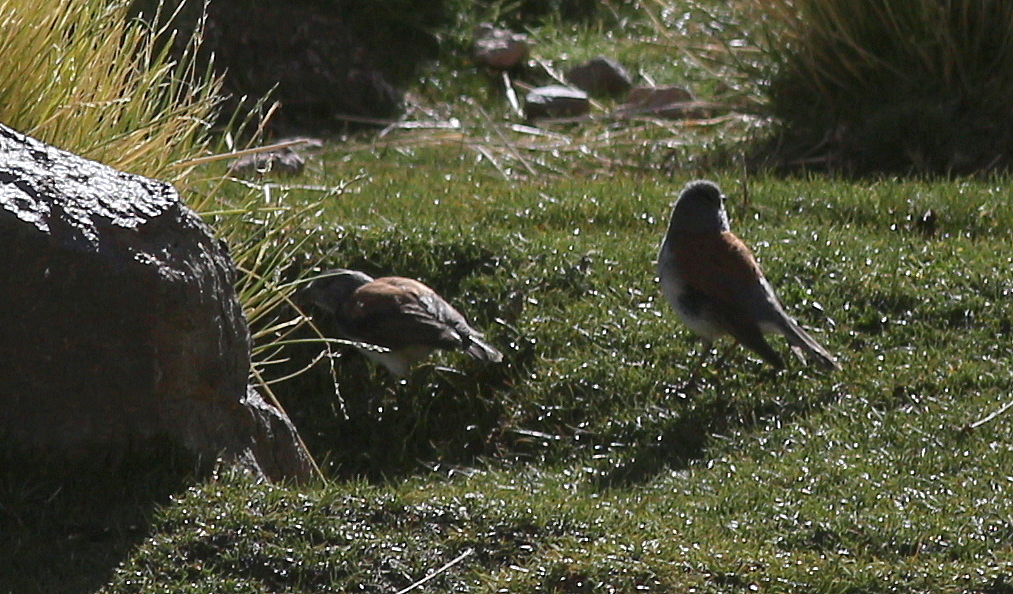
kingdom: Animalia
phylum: Chordata
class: Aves
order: Passeriformes
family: Thraupidae
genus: Idiopsar
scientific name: Idiopsar dorsalis
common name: Red-backed sierra finch
